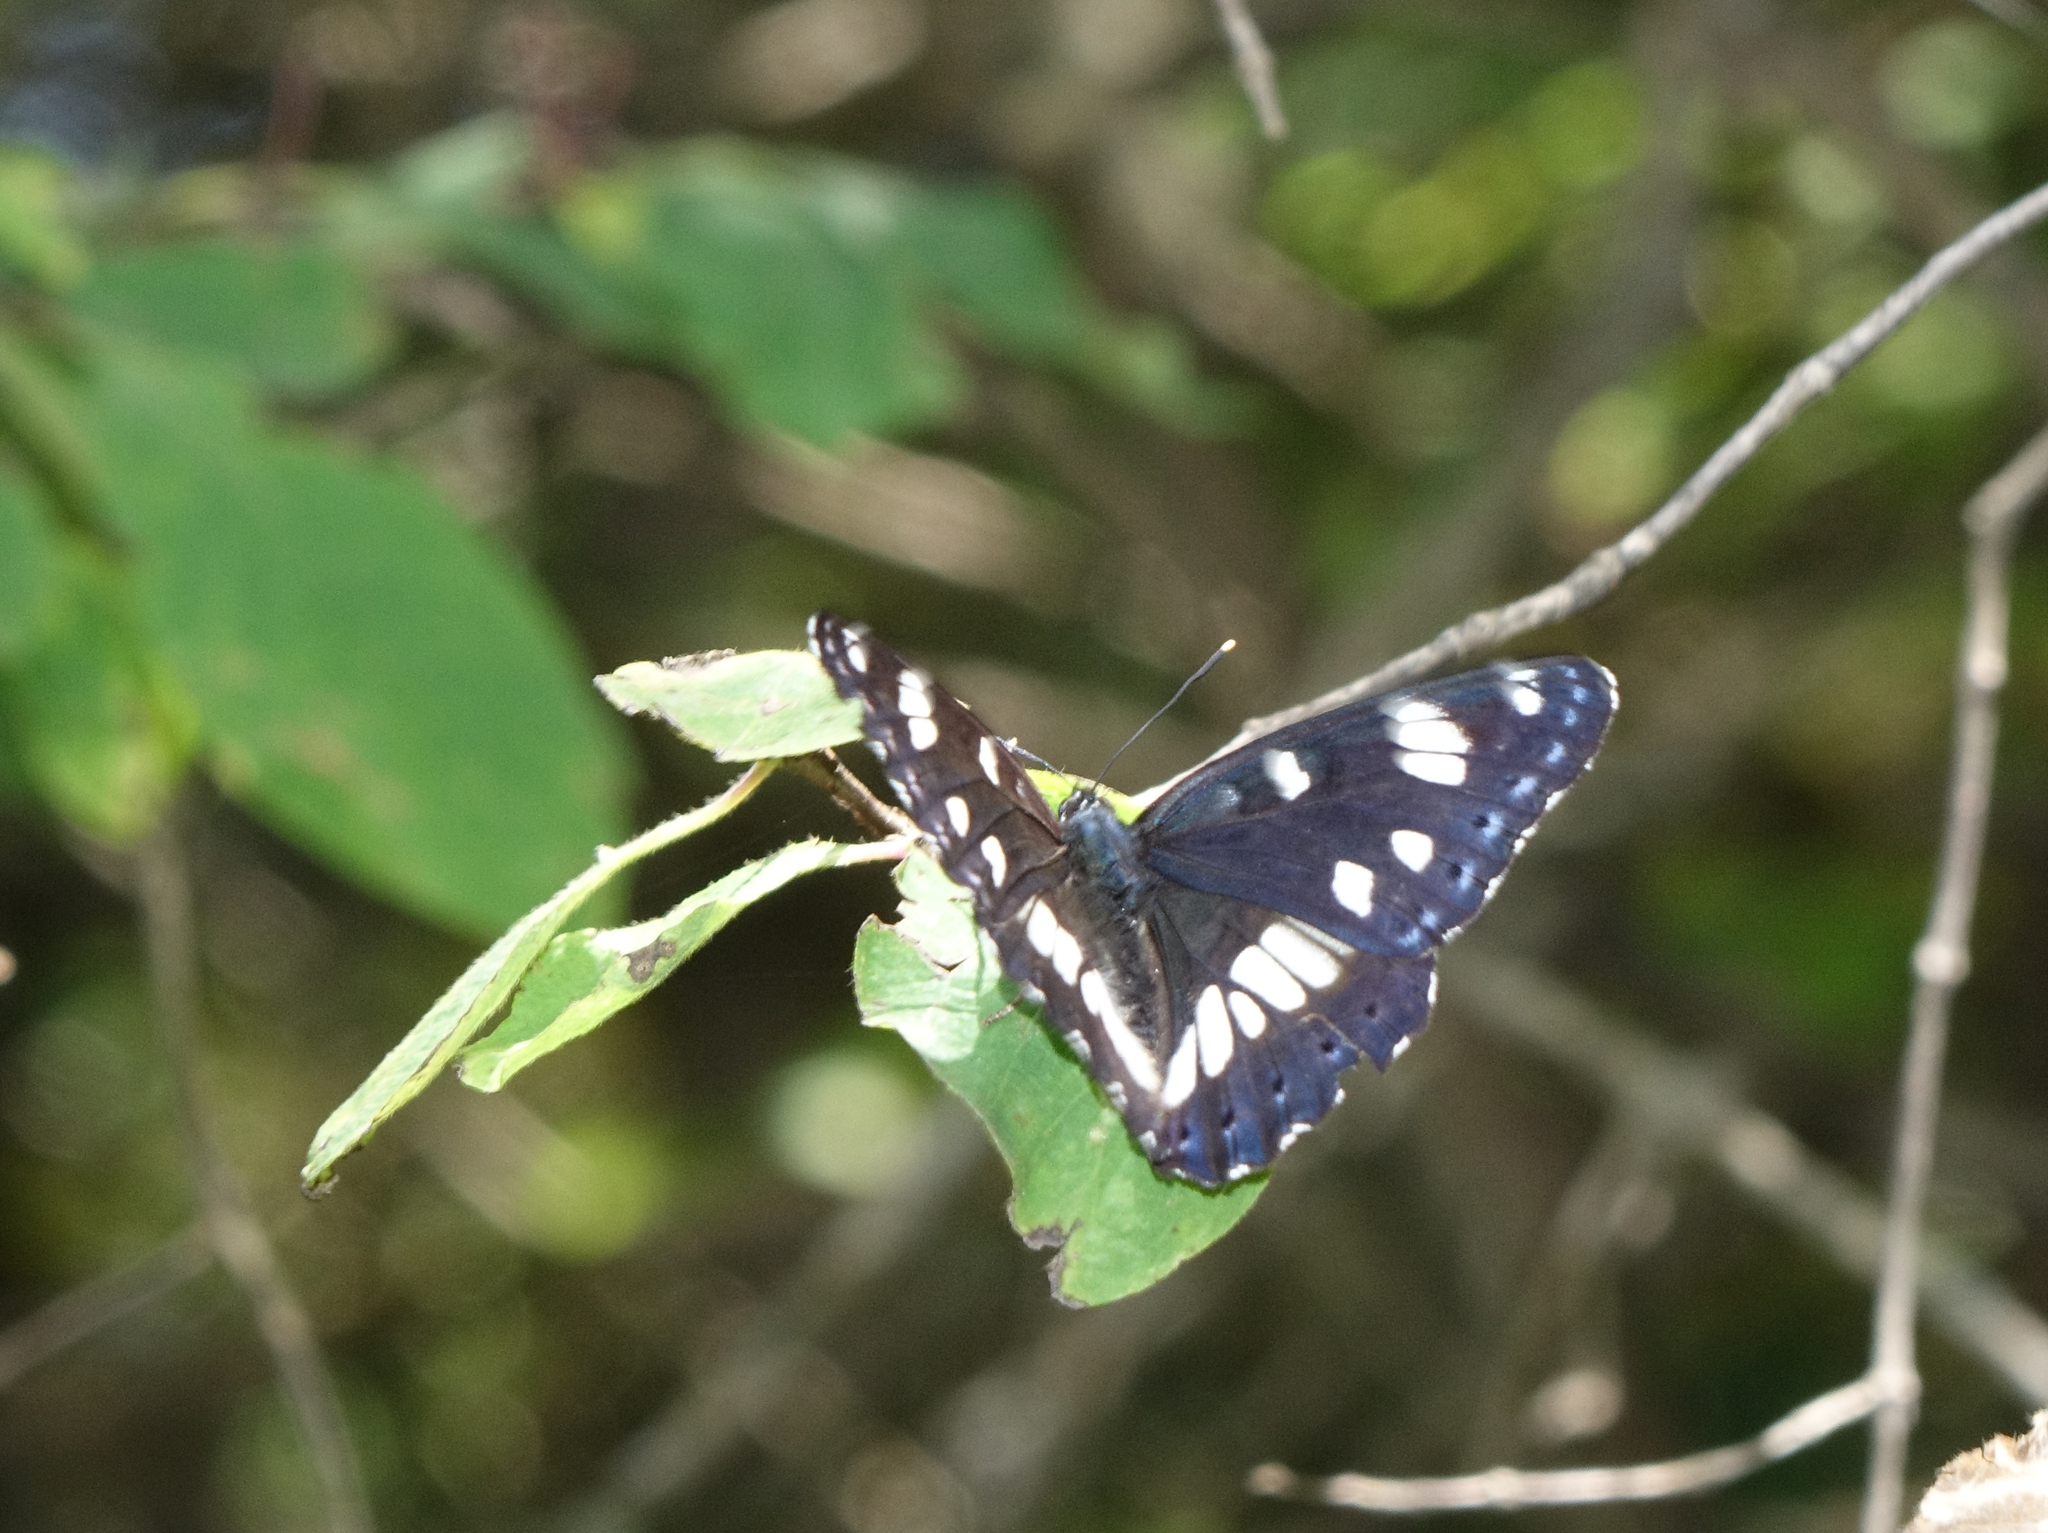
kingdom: Animalia
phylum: Arthropoda
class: Insecta
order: Lepidoptera
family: Nymphalidae
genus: Limenitis
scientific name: Limenitis reducta
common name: Southern white admiral
